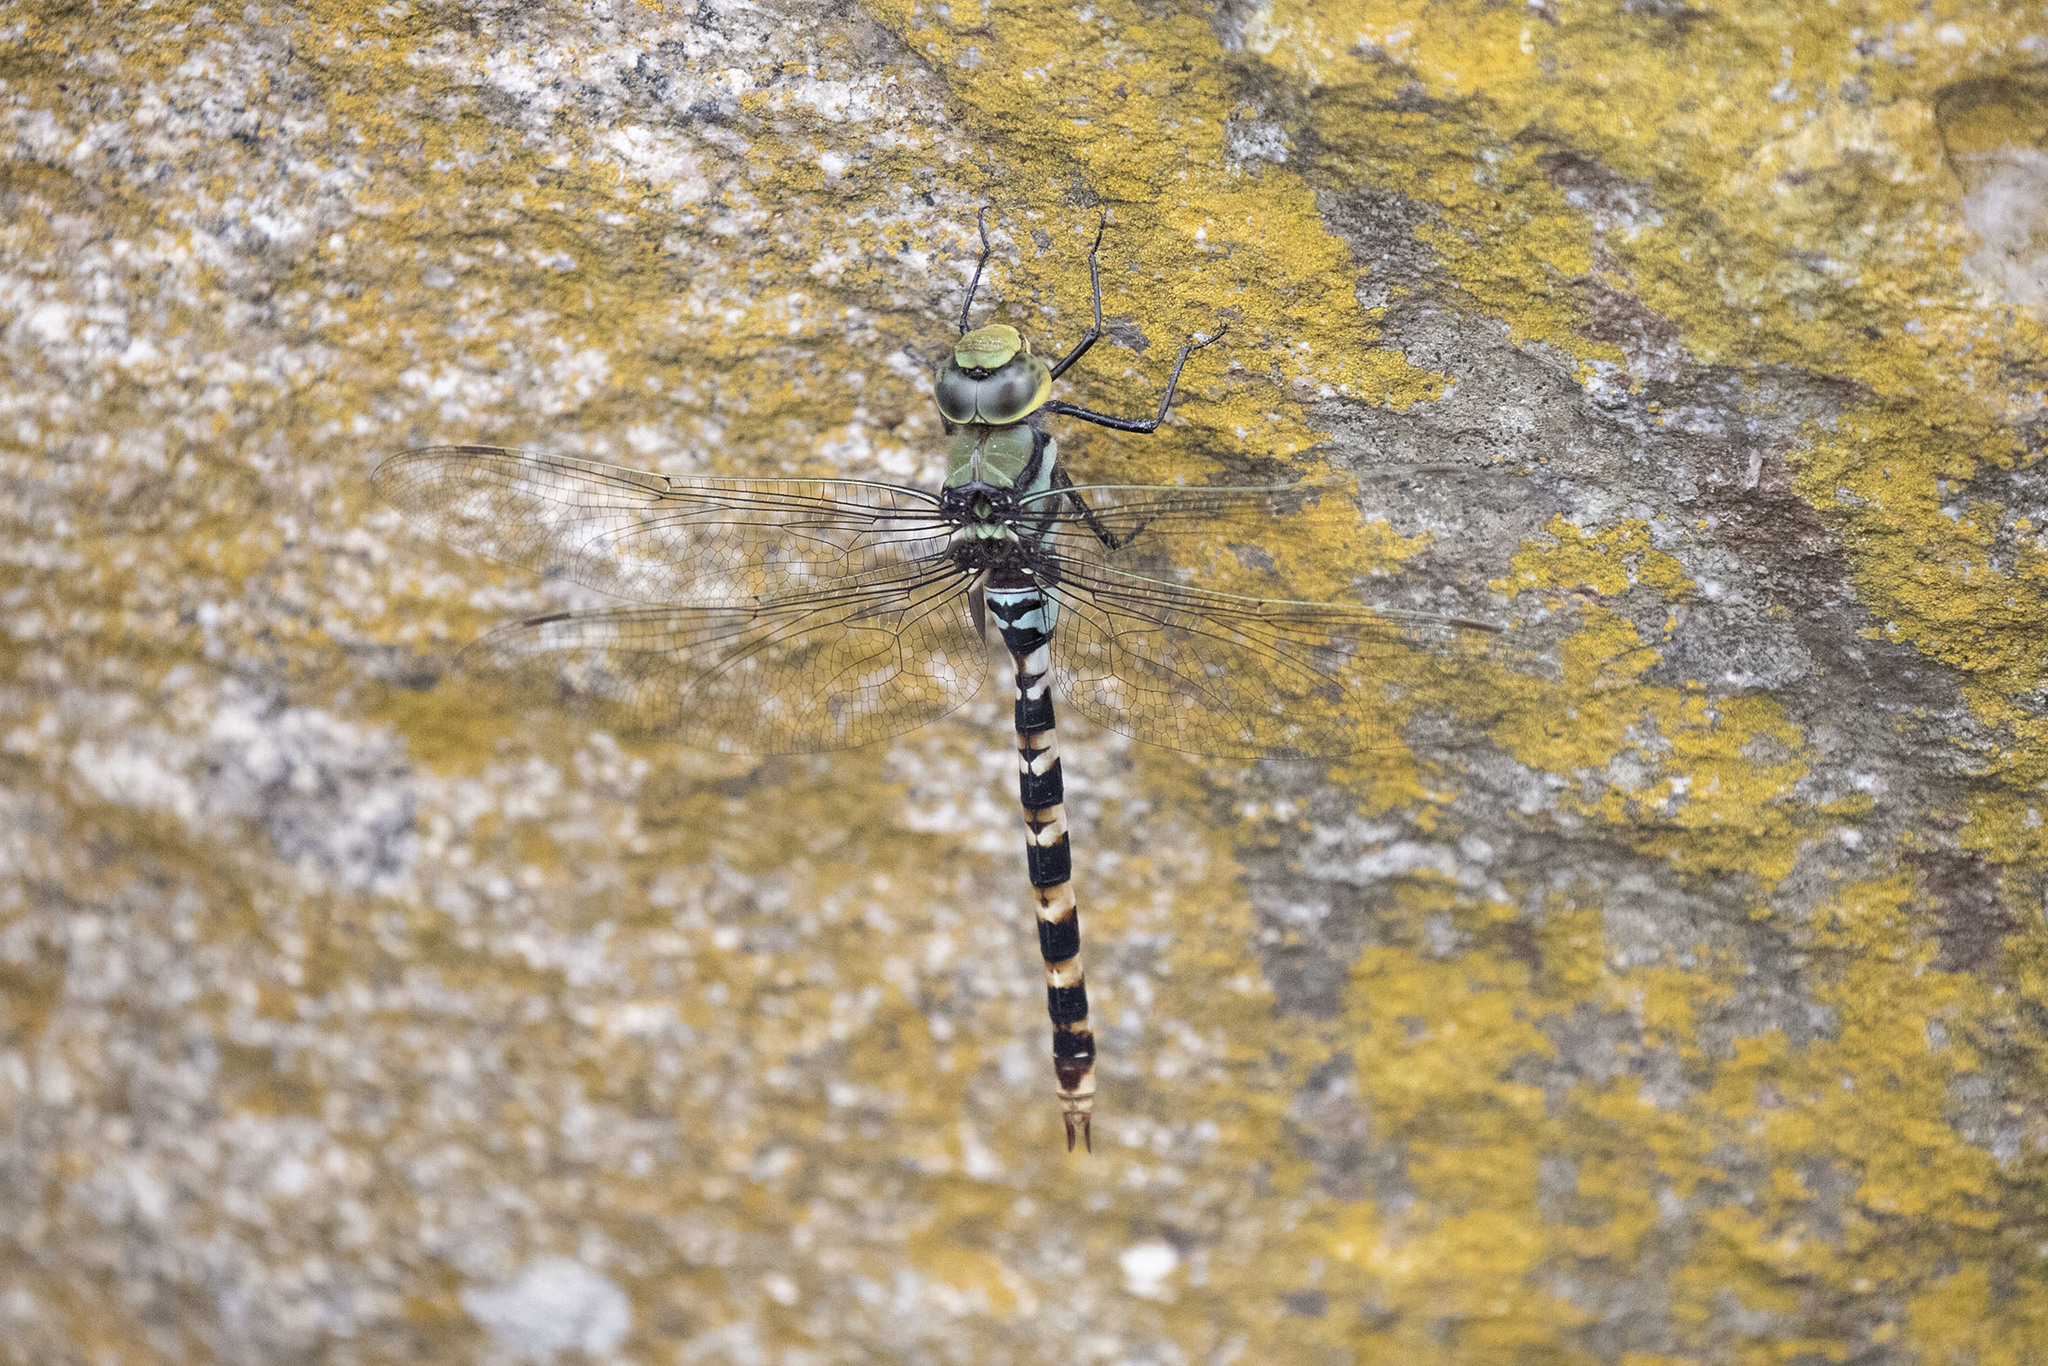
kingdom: Animalia
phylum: Arthropoda
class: Insecta
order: Odonata
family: Aeshnidae
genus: Anax
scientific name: Anax immaculifrons
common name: Magnificent emperor
